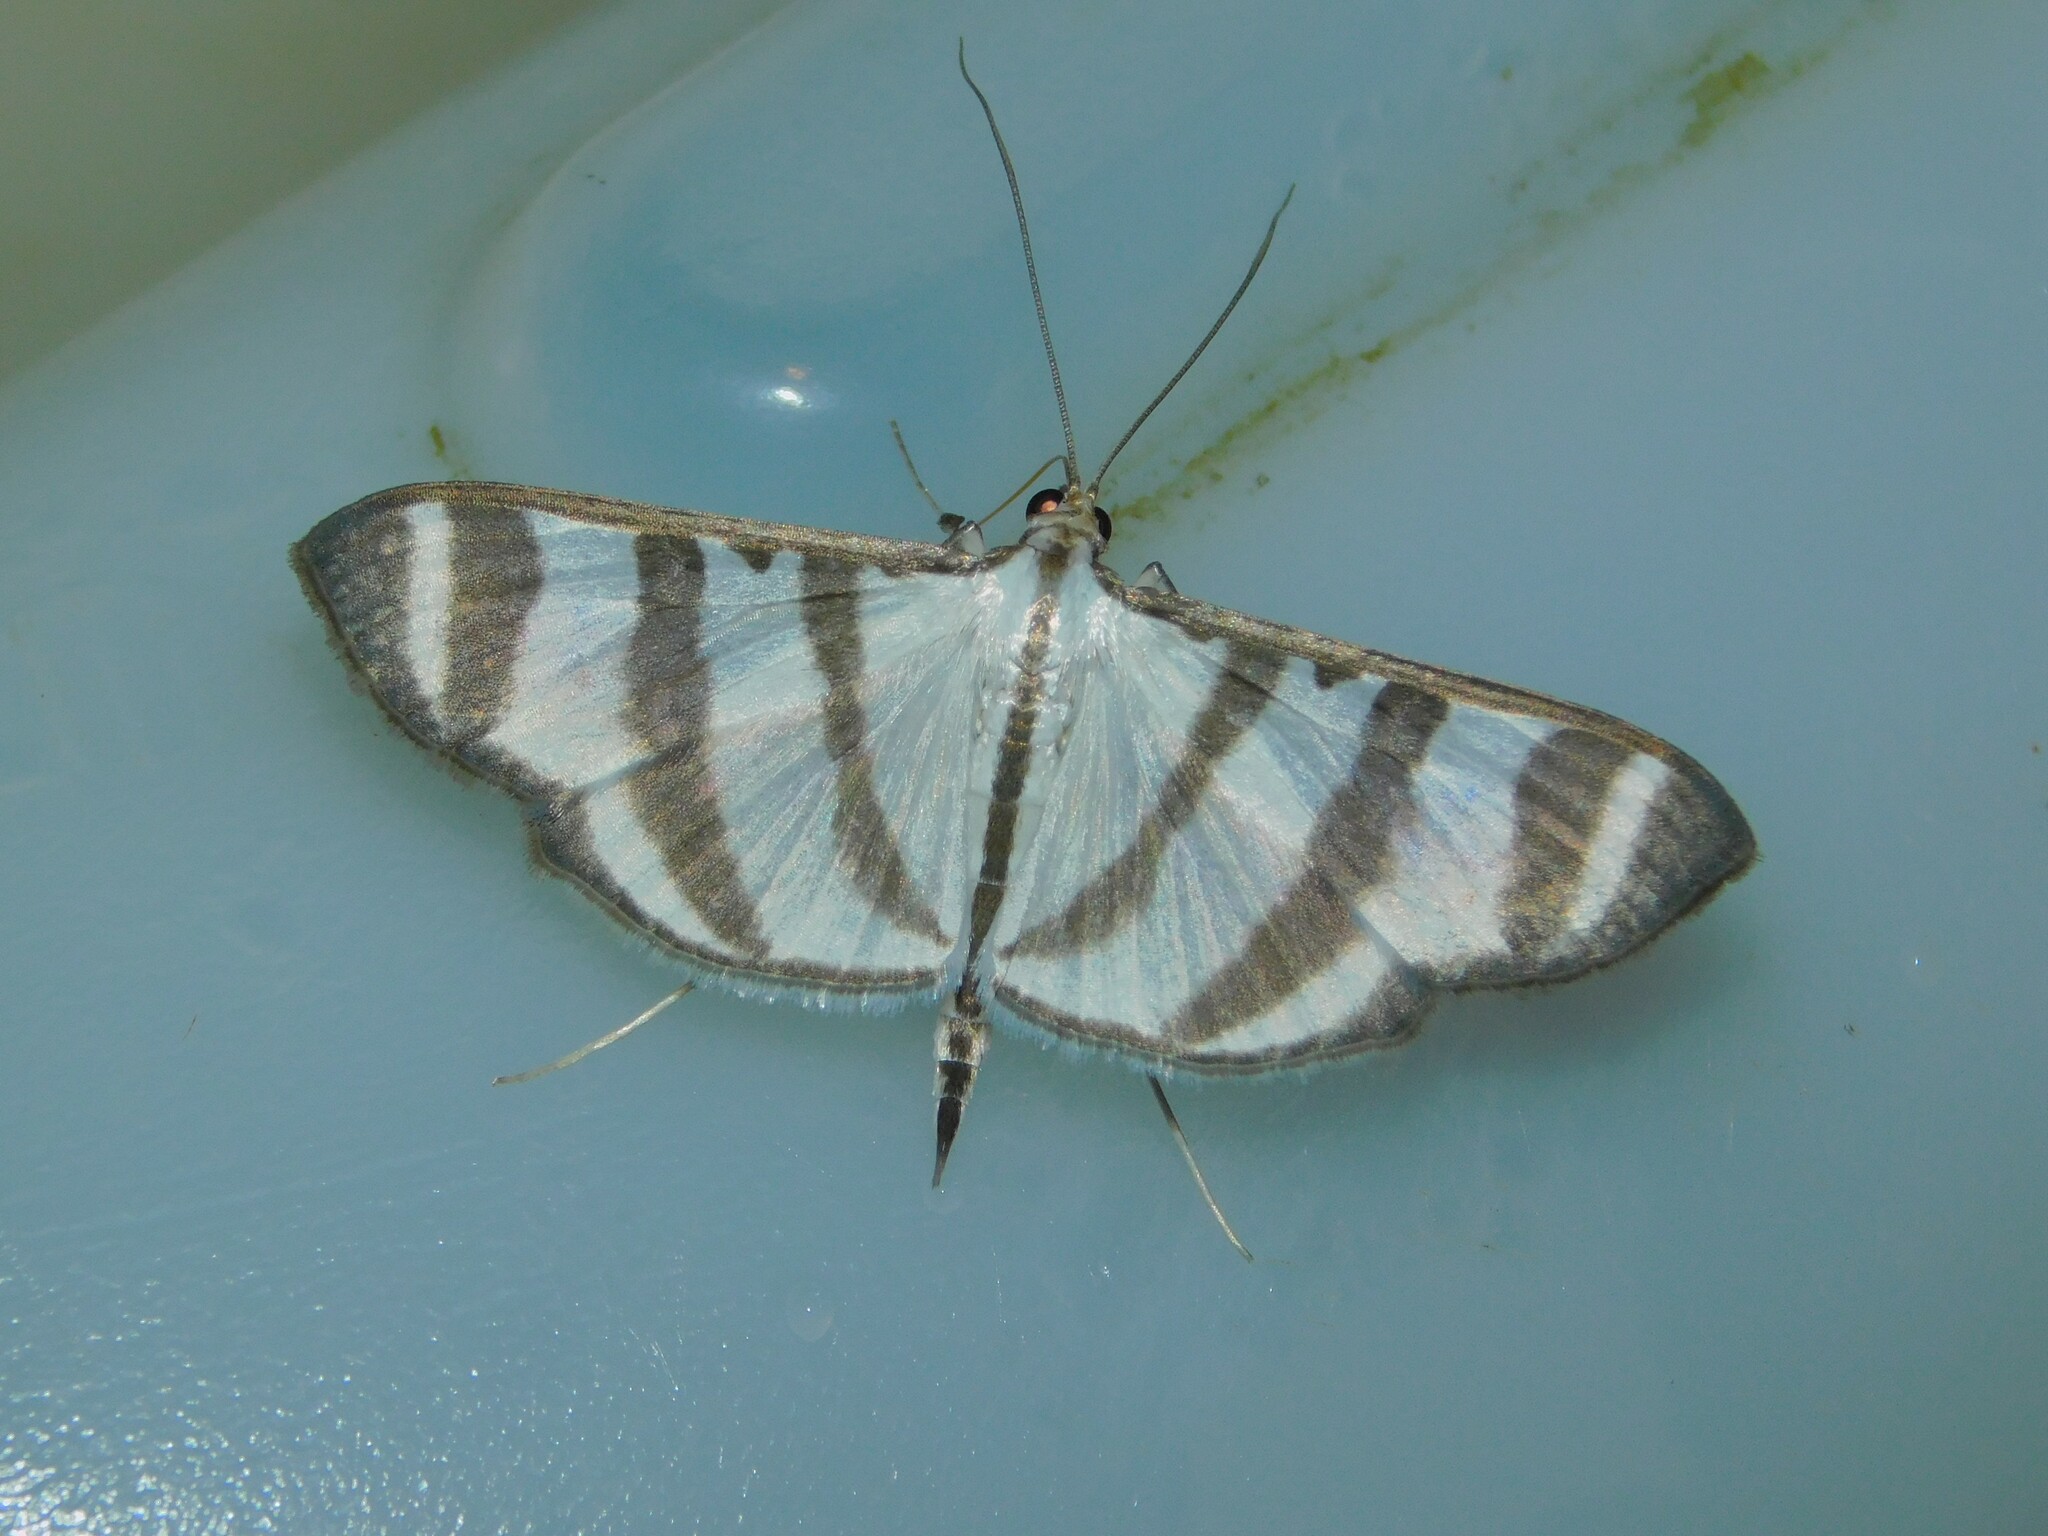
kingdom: Animalia
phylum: Arthropoda
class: Insecta
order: Lepidoptera
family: Crambidae
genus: Zebronia
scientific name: Zebronia phenice
